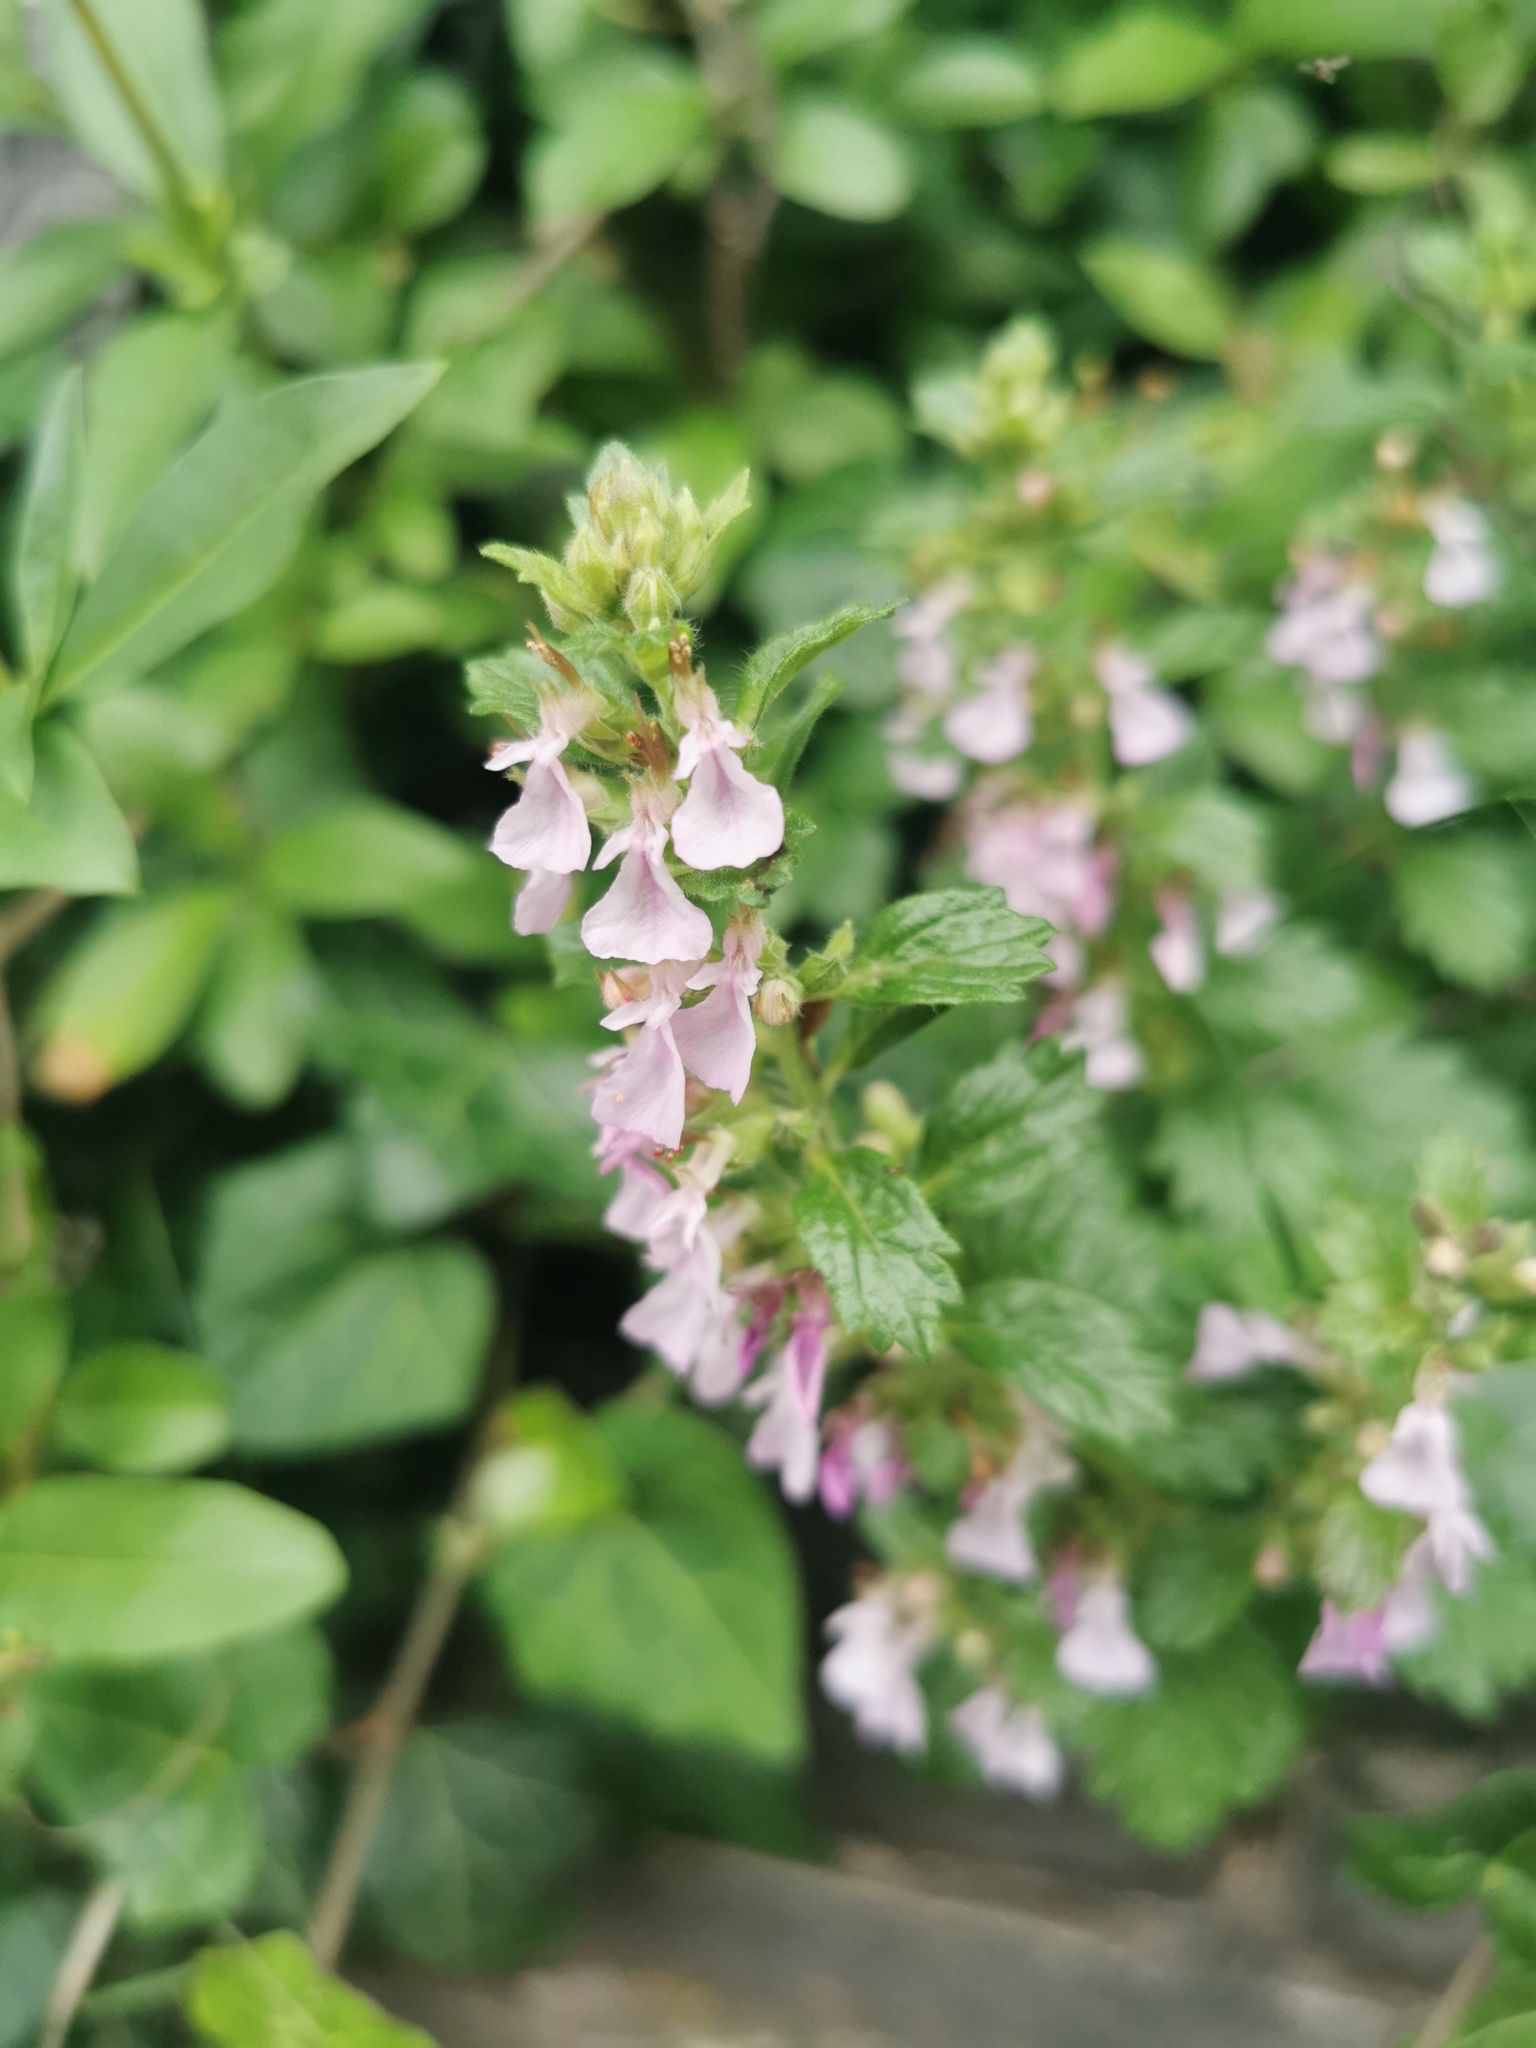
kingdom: Plantae
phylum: Tracheophyta
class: Magnoliopsida
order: Lamiales
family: Lamiaceae
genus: Teucrium
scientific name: Teucrium chamaedrys
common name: Wall germander
